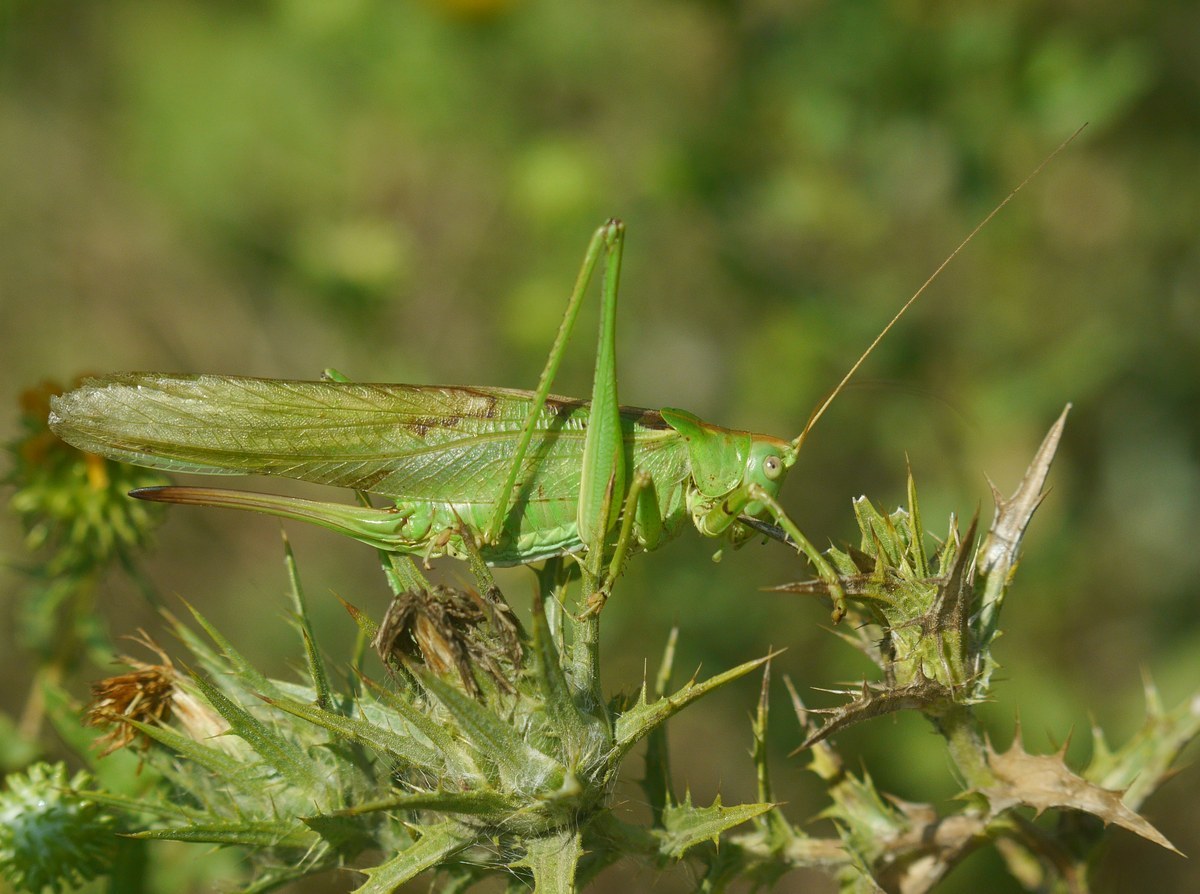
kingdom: Animalia
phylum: Arthropoda
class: Insecta
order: Orthoptera
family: Tettigoniidae
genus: Tettigonia
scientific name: Tettigonia viridissima
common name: Great green bush-cricket
